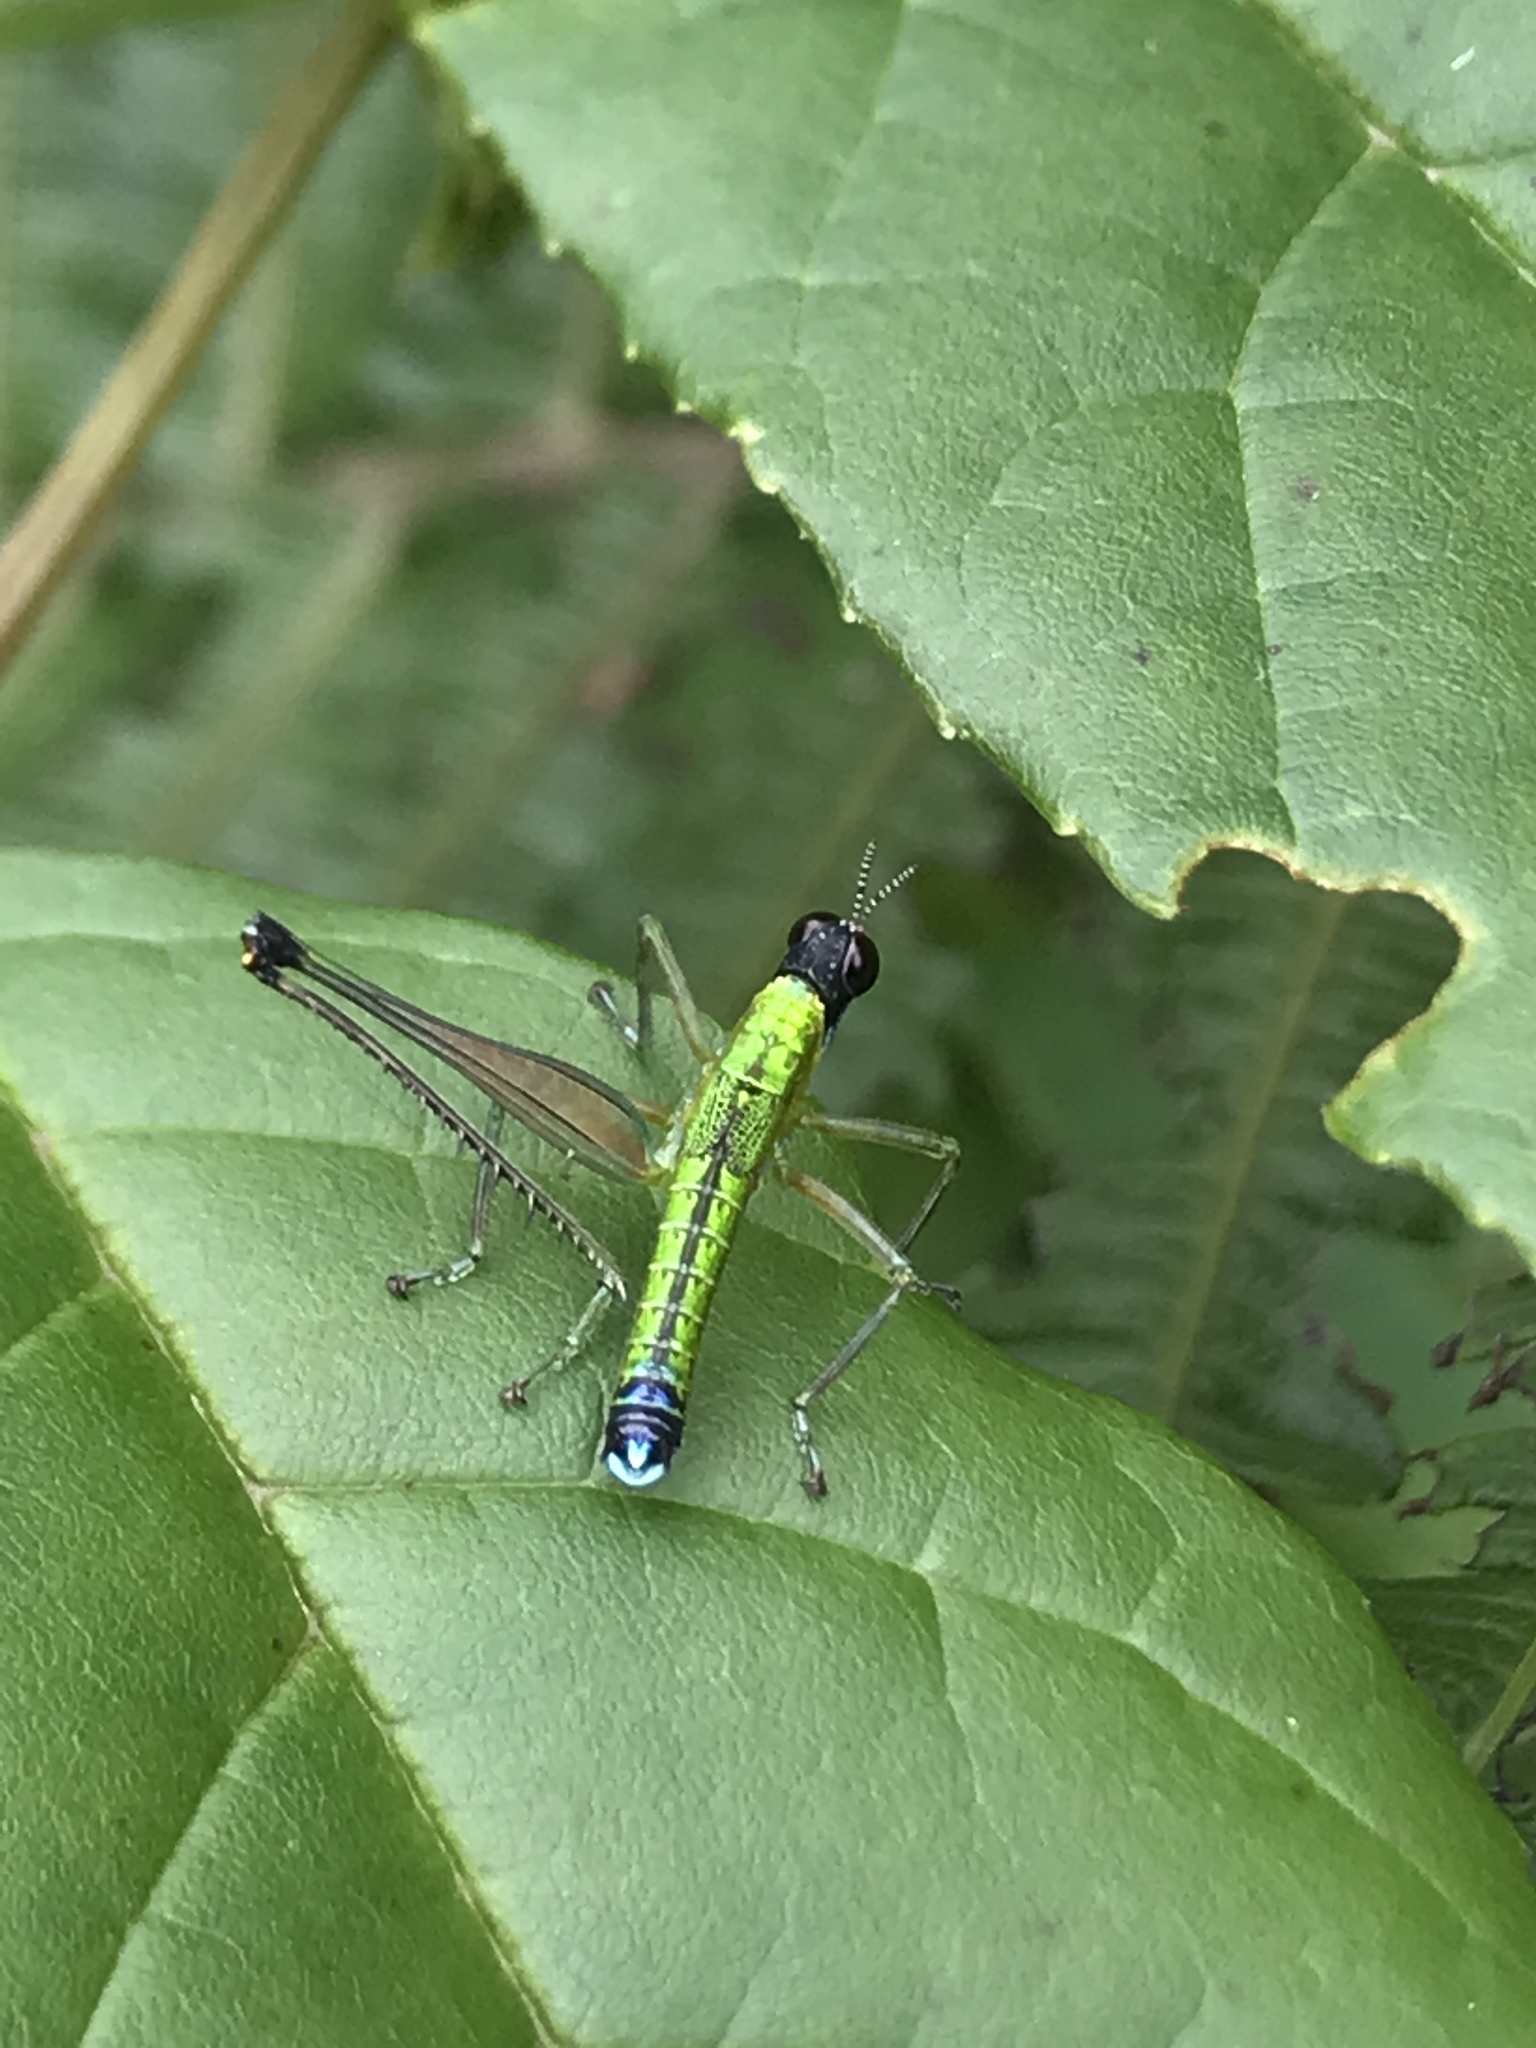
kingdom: Animalia
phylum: Arthropoda
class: Insecta
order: Orthoptera
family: Eumastacidae
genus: Zeromastax
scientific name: Zeromastax selenesii
